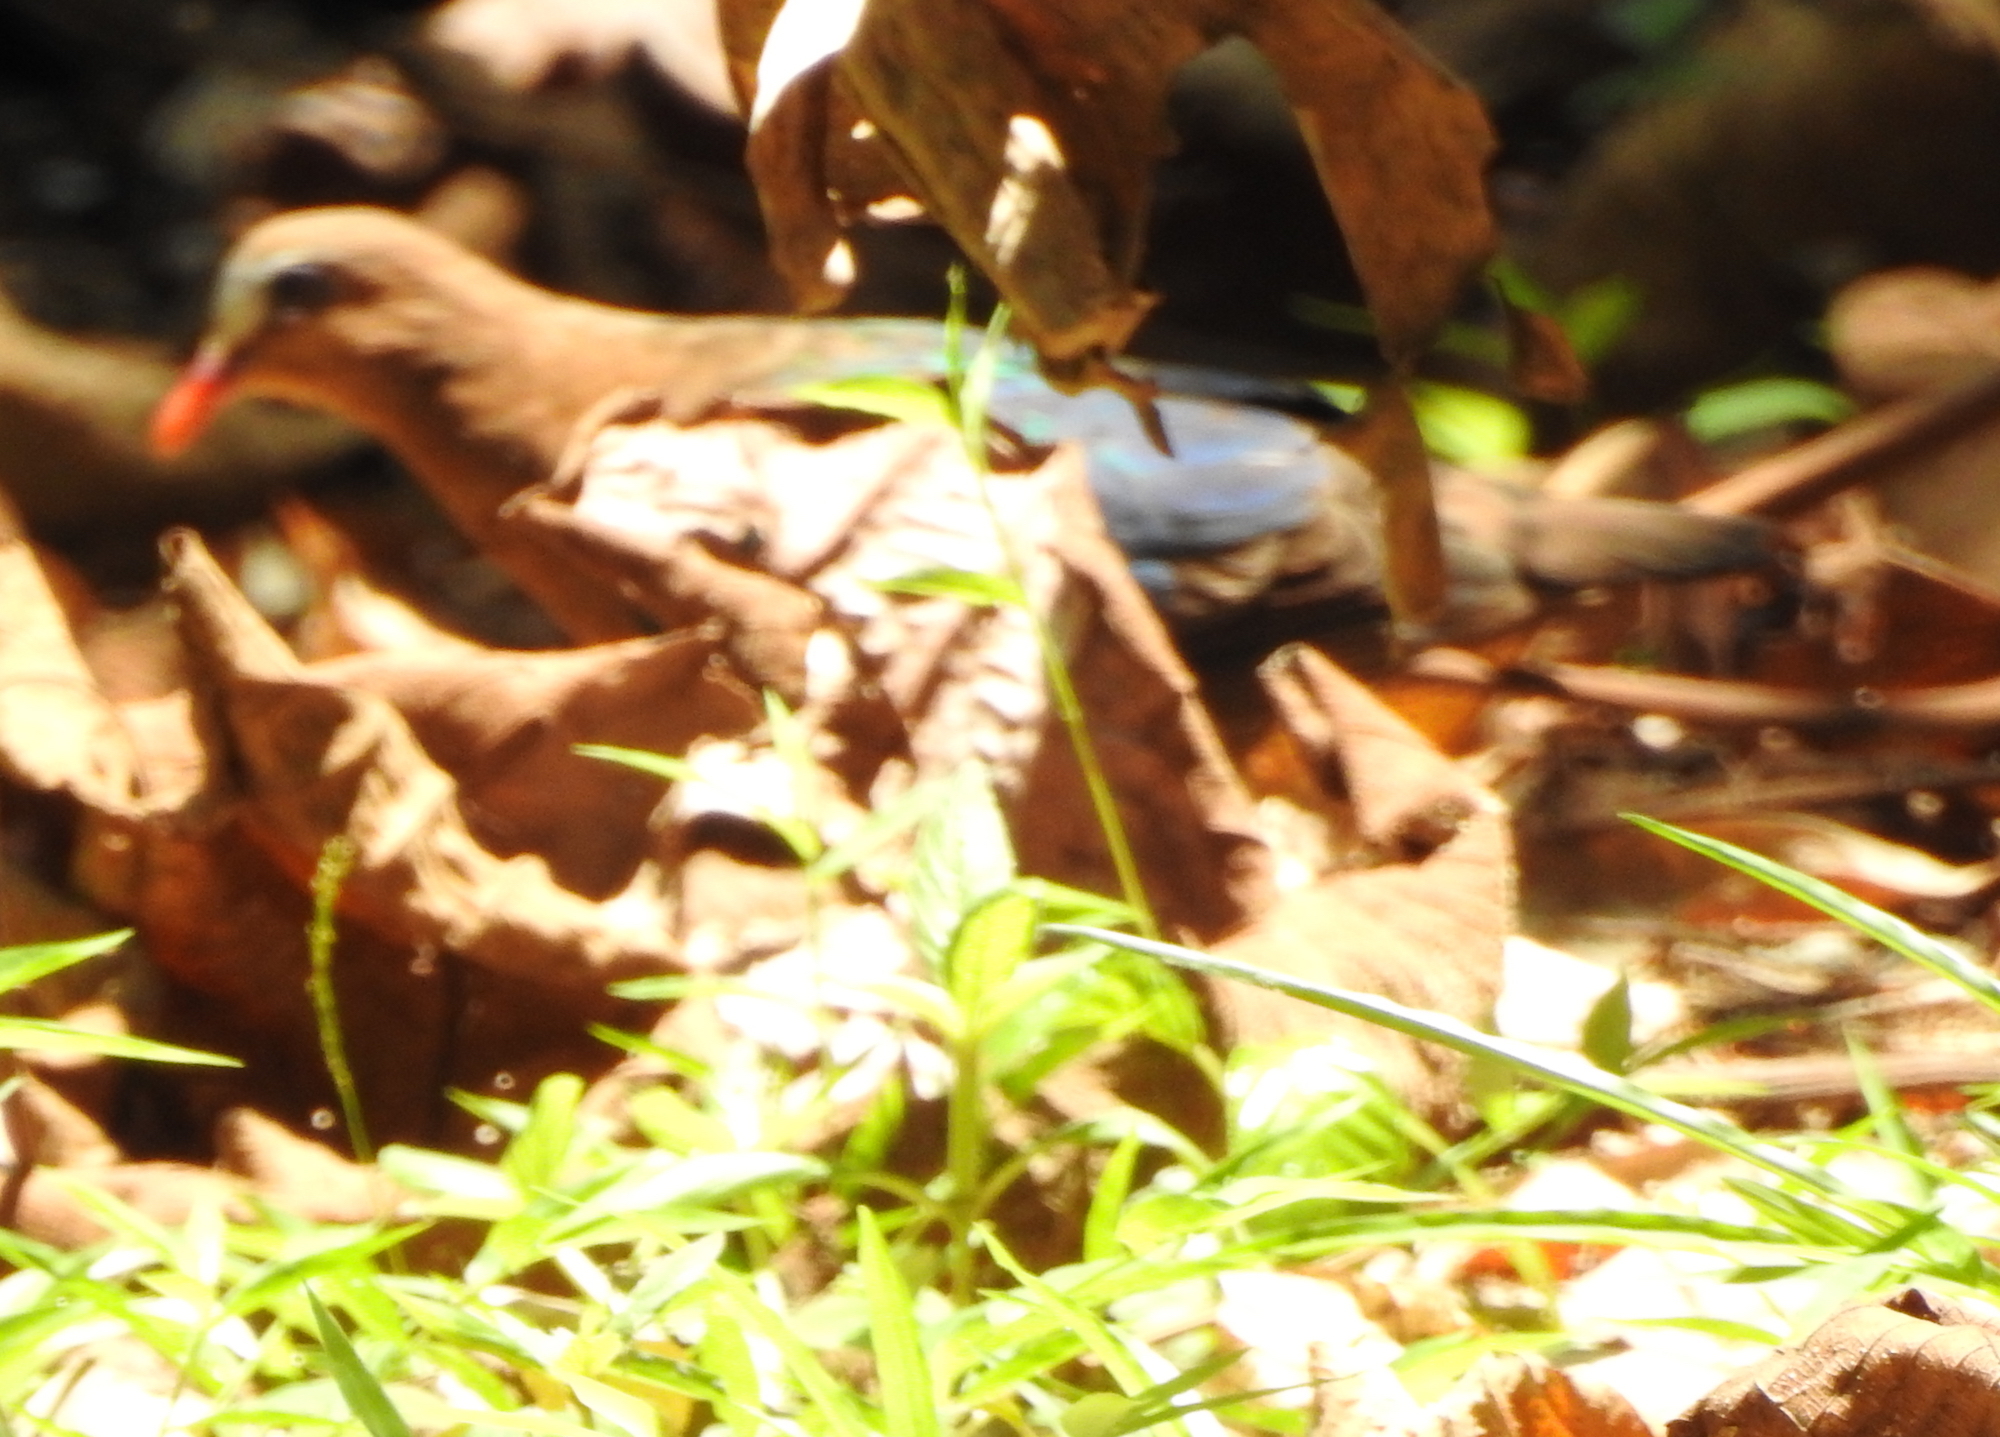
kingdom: Animalia
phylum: Chordata
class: Aves
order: Columbiformes
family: Columbidae
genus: Chalcophaps
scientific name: Chalcophaps indica
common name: Common emerald dove
